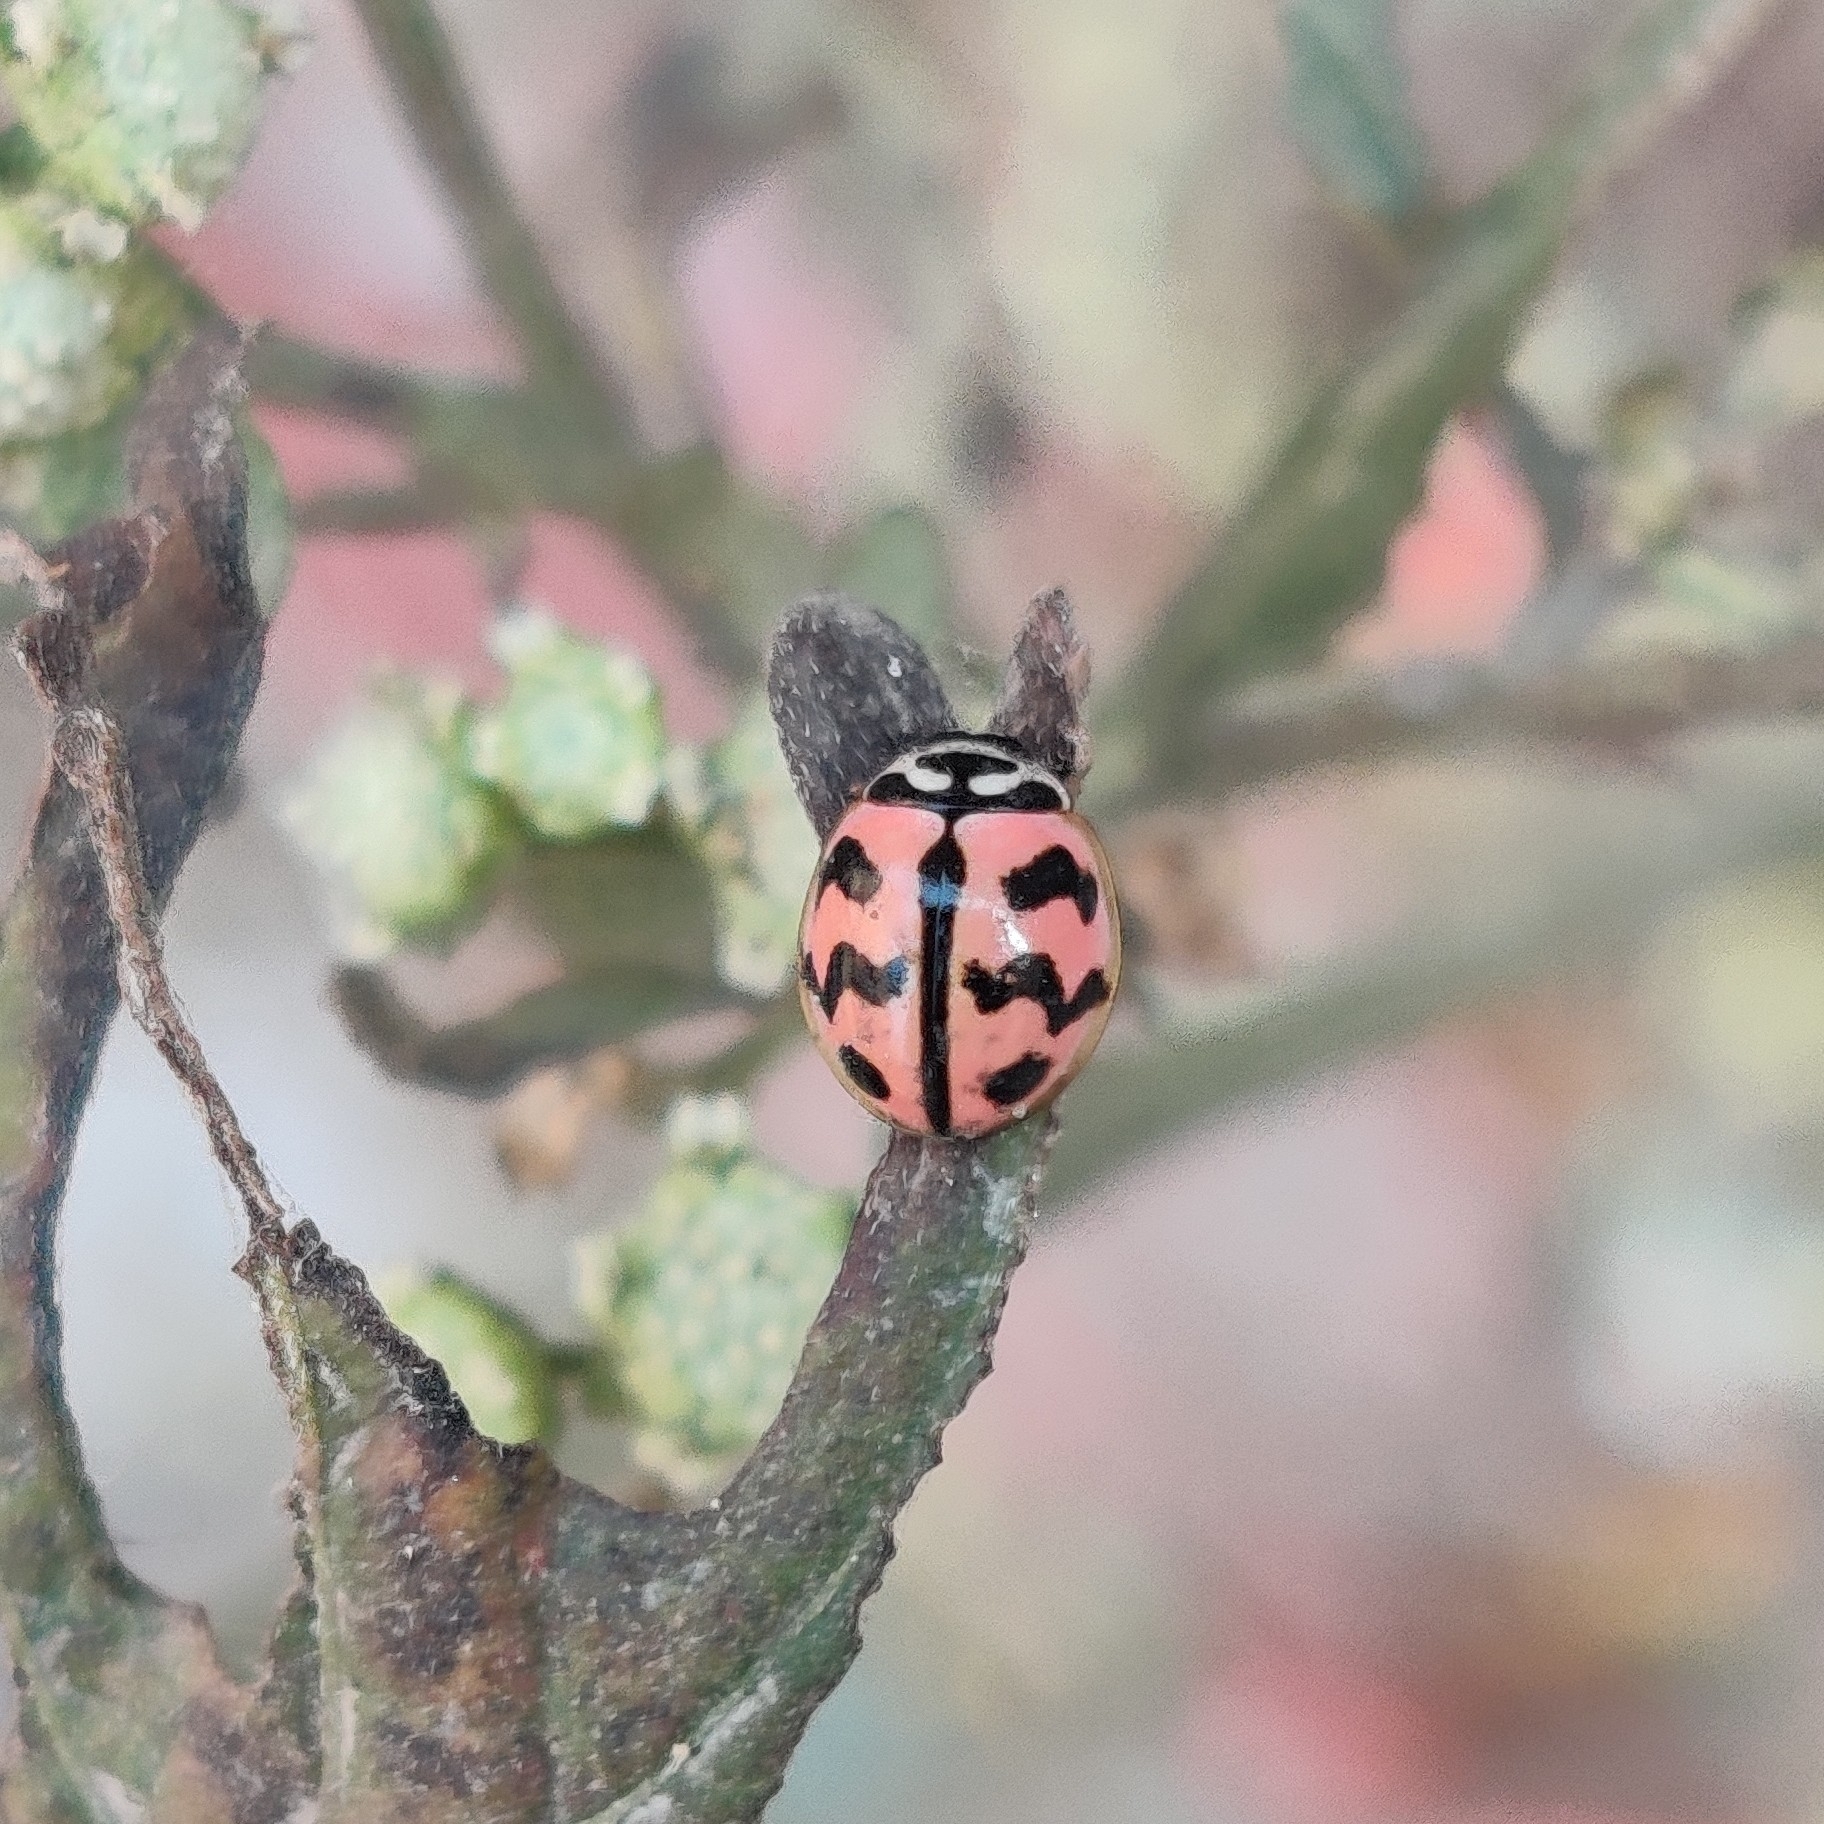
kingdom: Animalia
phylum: Arthropoda
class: Insecta
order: Coleoptera
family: Coccinellidae
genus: Cheilomenes
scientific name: Cheilomenes sexmaculata
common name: Ladybird beetle
